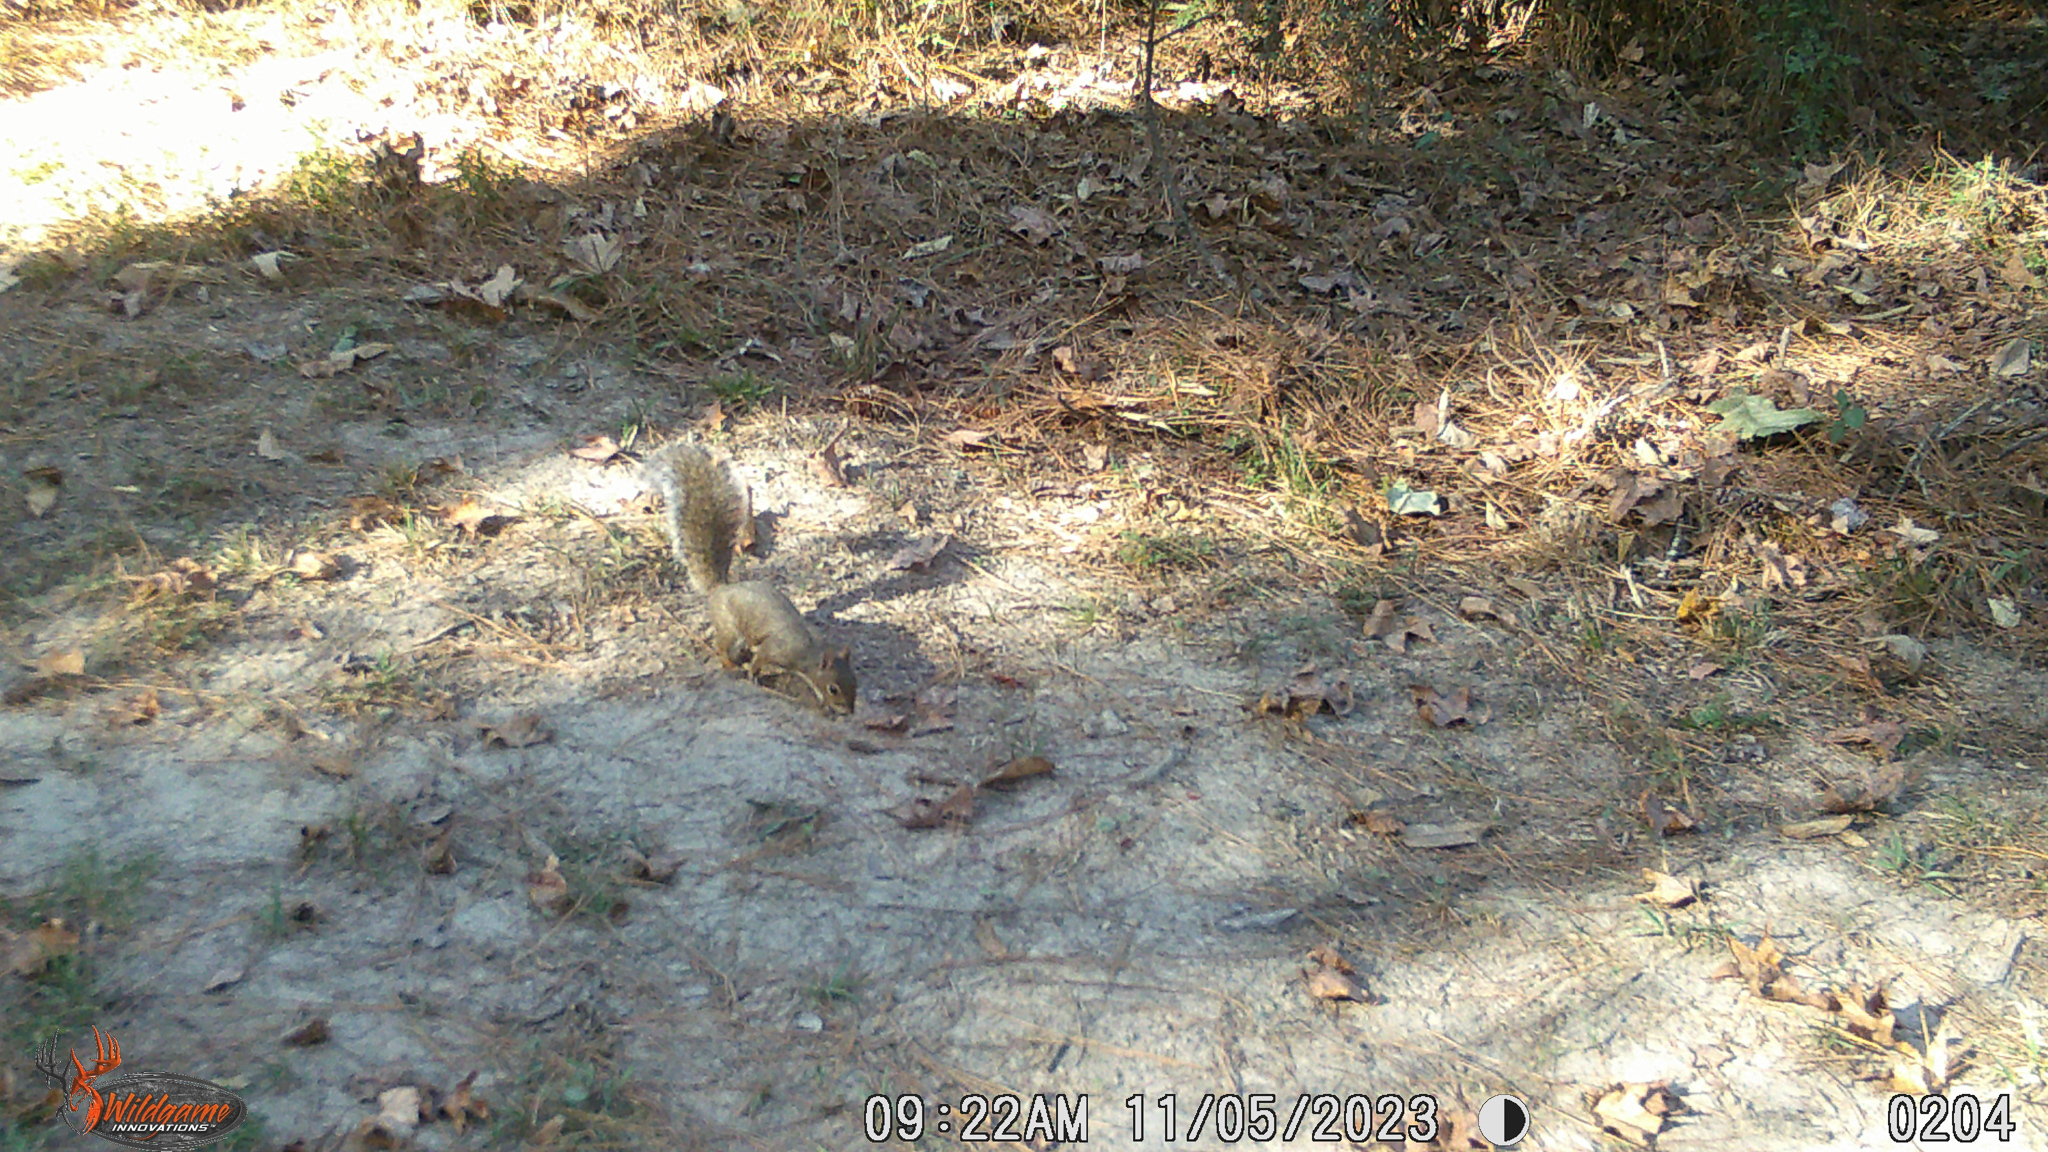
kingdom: Animalia
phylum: Chordata
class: Mammalia
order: Rodentia
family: Sciuridae
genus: Sciurus
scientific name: Sciurus carolinensis
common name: Eastern gray squirrel
